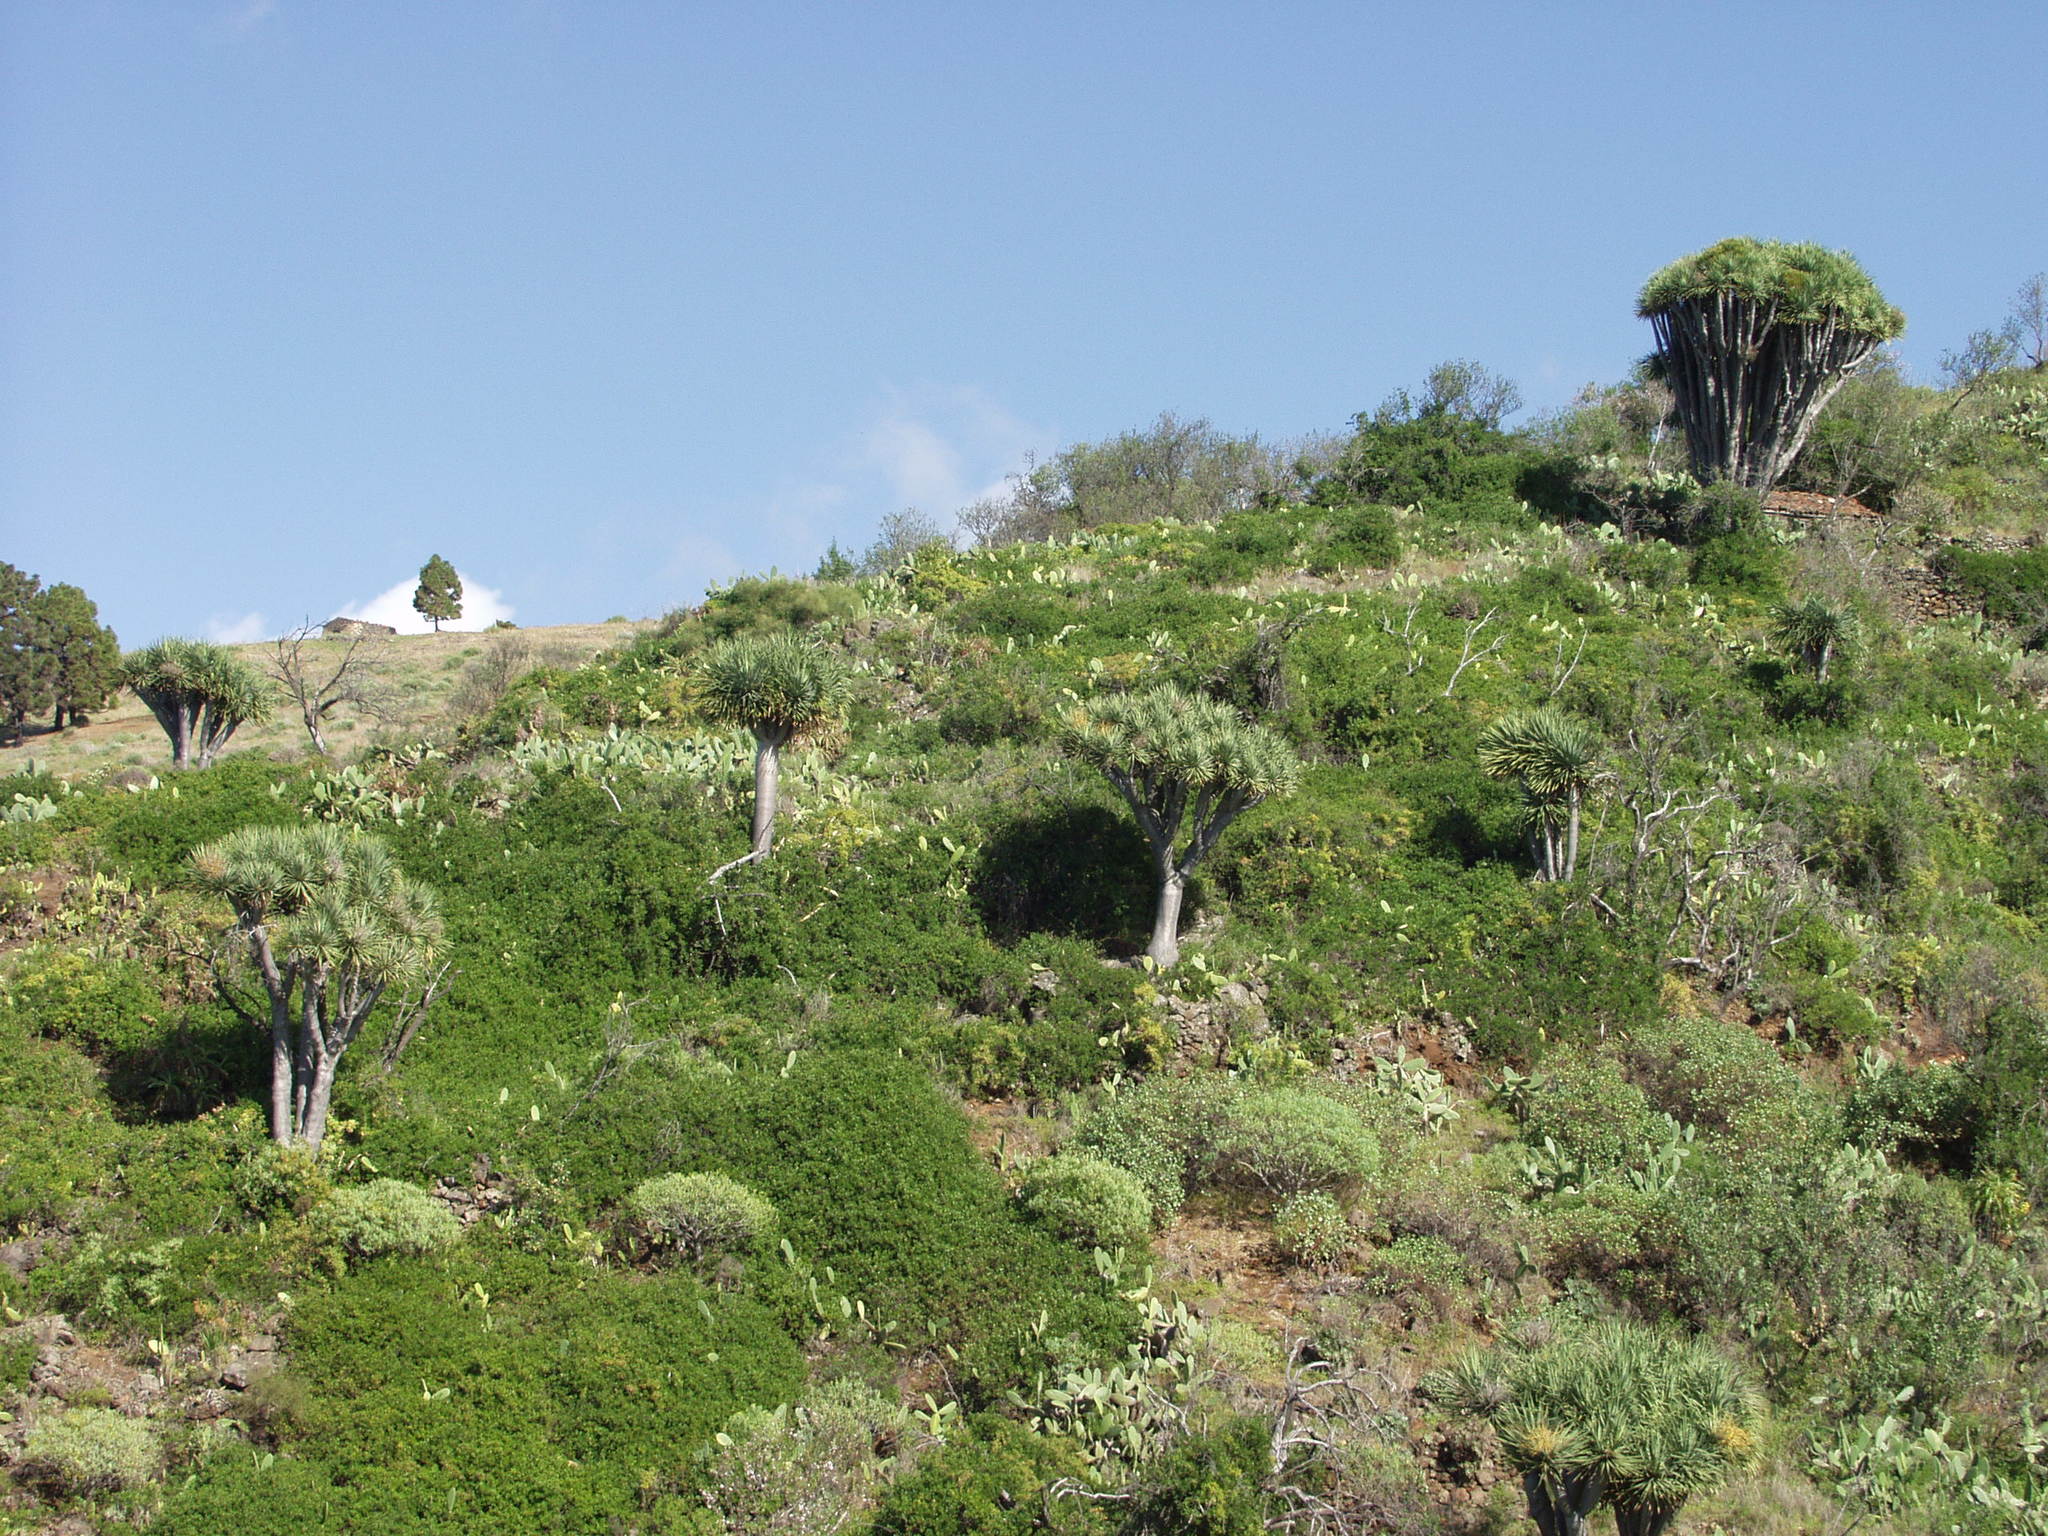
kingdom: Plantae
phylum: Tracheophyta
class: Liliopsida
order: Asparagales
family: Asparagaceae
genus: Dracaena
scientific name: Dracaena draco
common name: Canary island dragon tree
